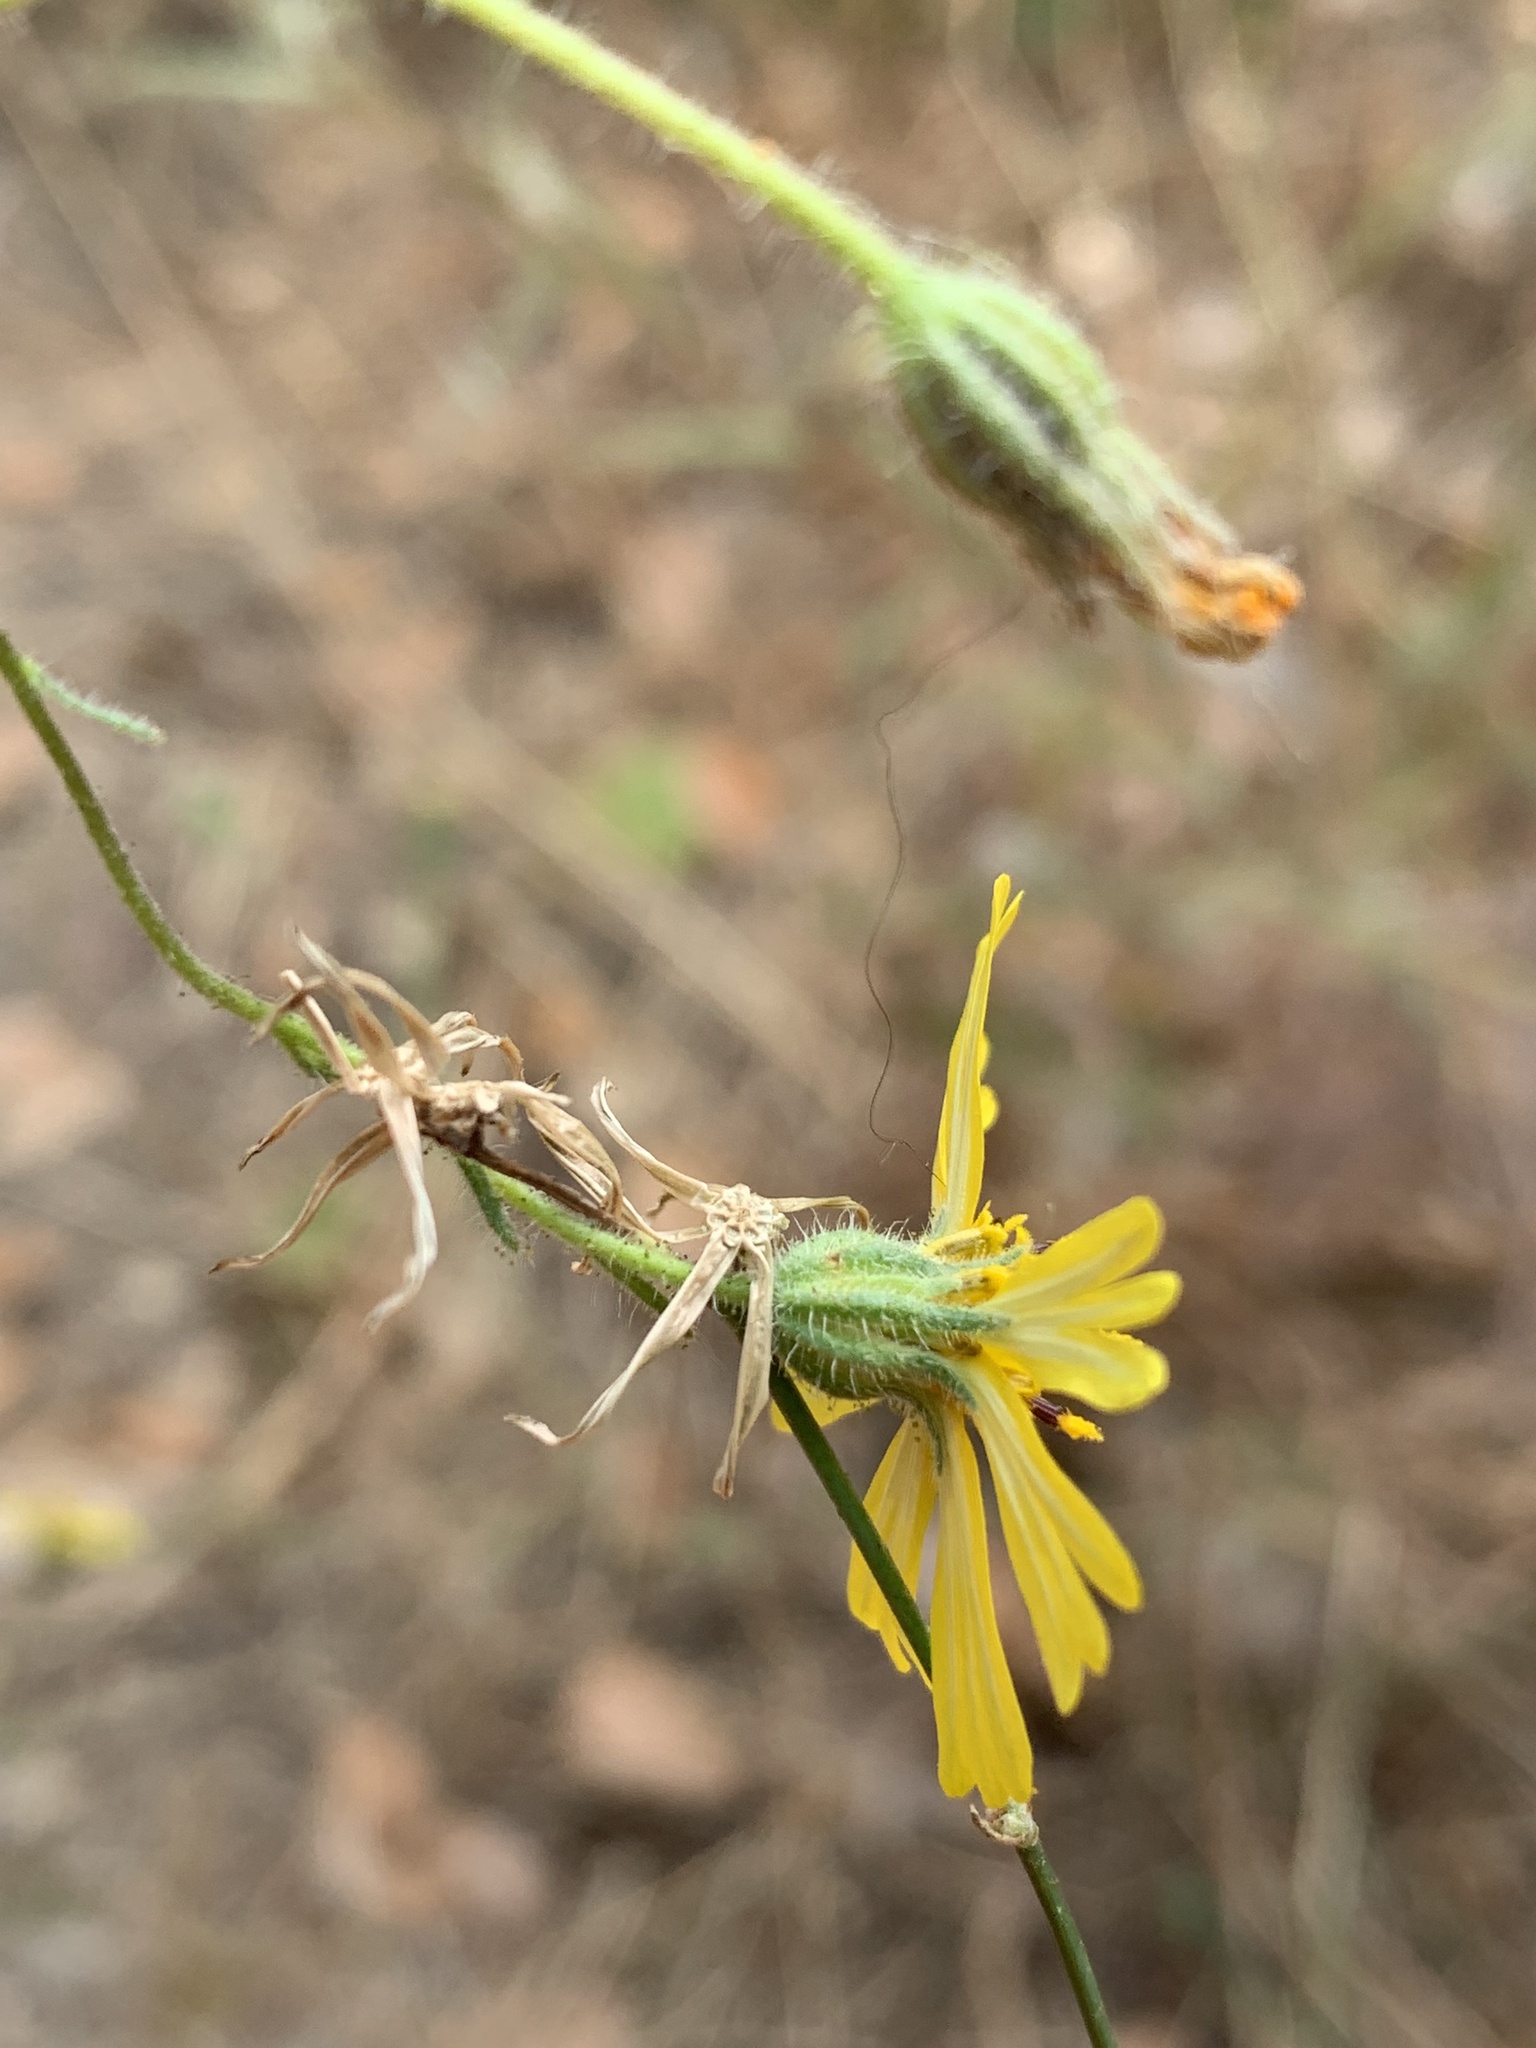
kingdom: Plantae
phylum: Tracheophyta
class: Magnoliopsida
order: Asterales
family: Asteraceae
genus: Madia
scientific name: Madia elegans
